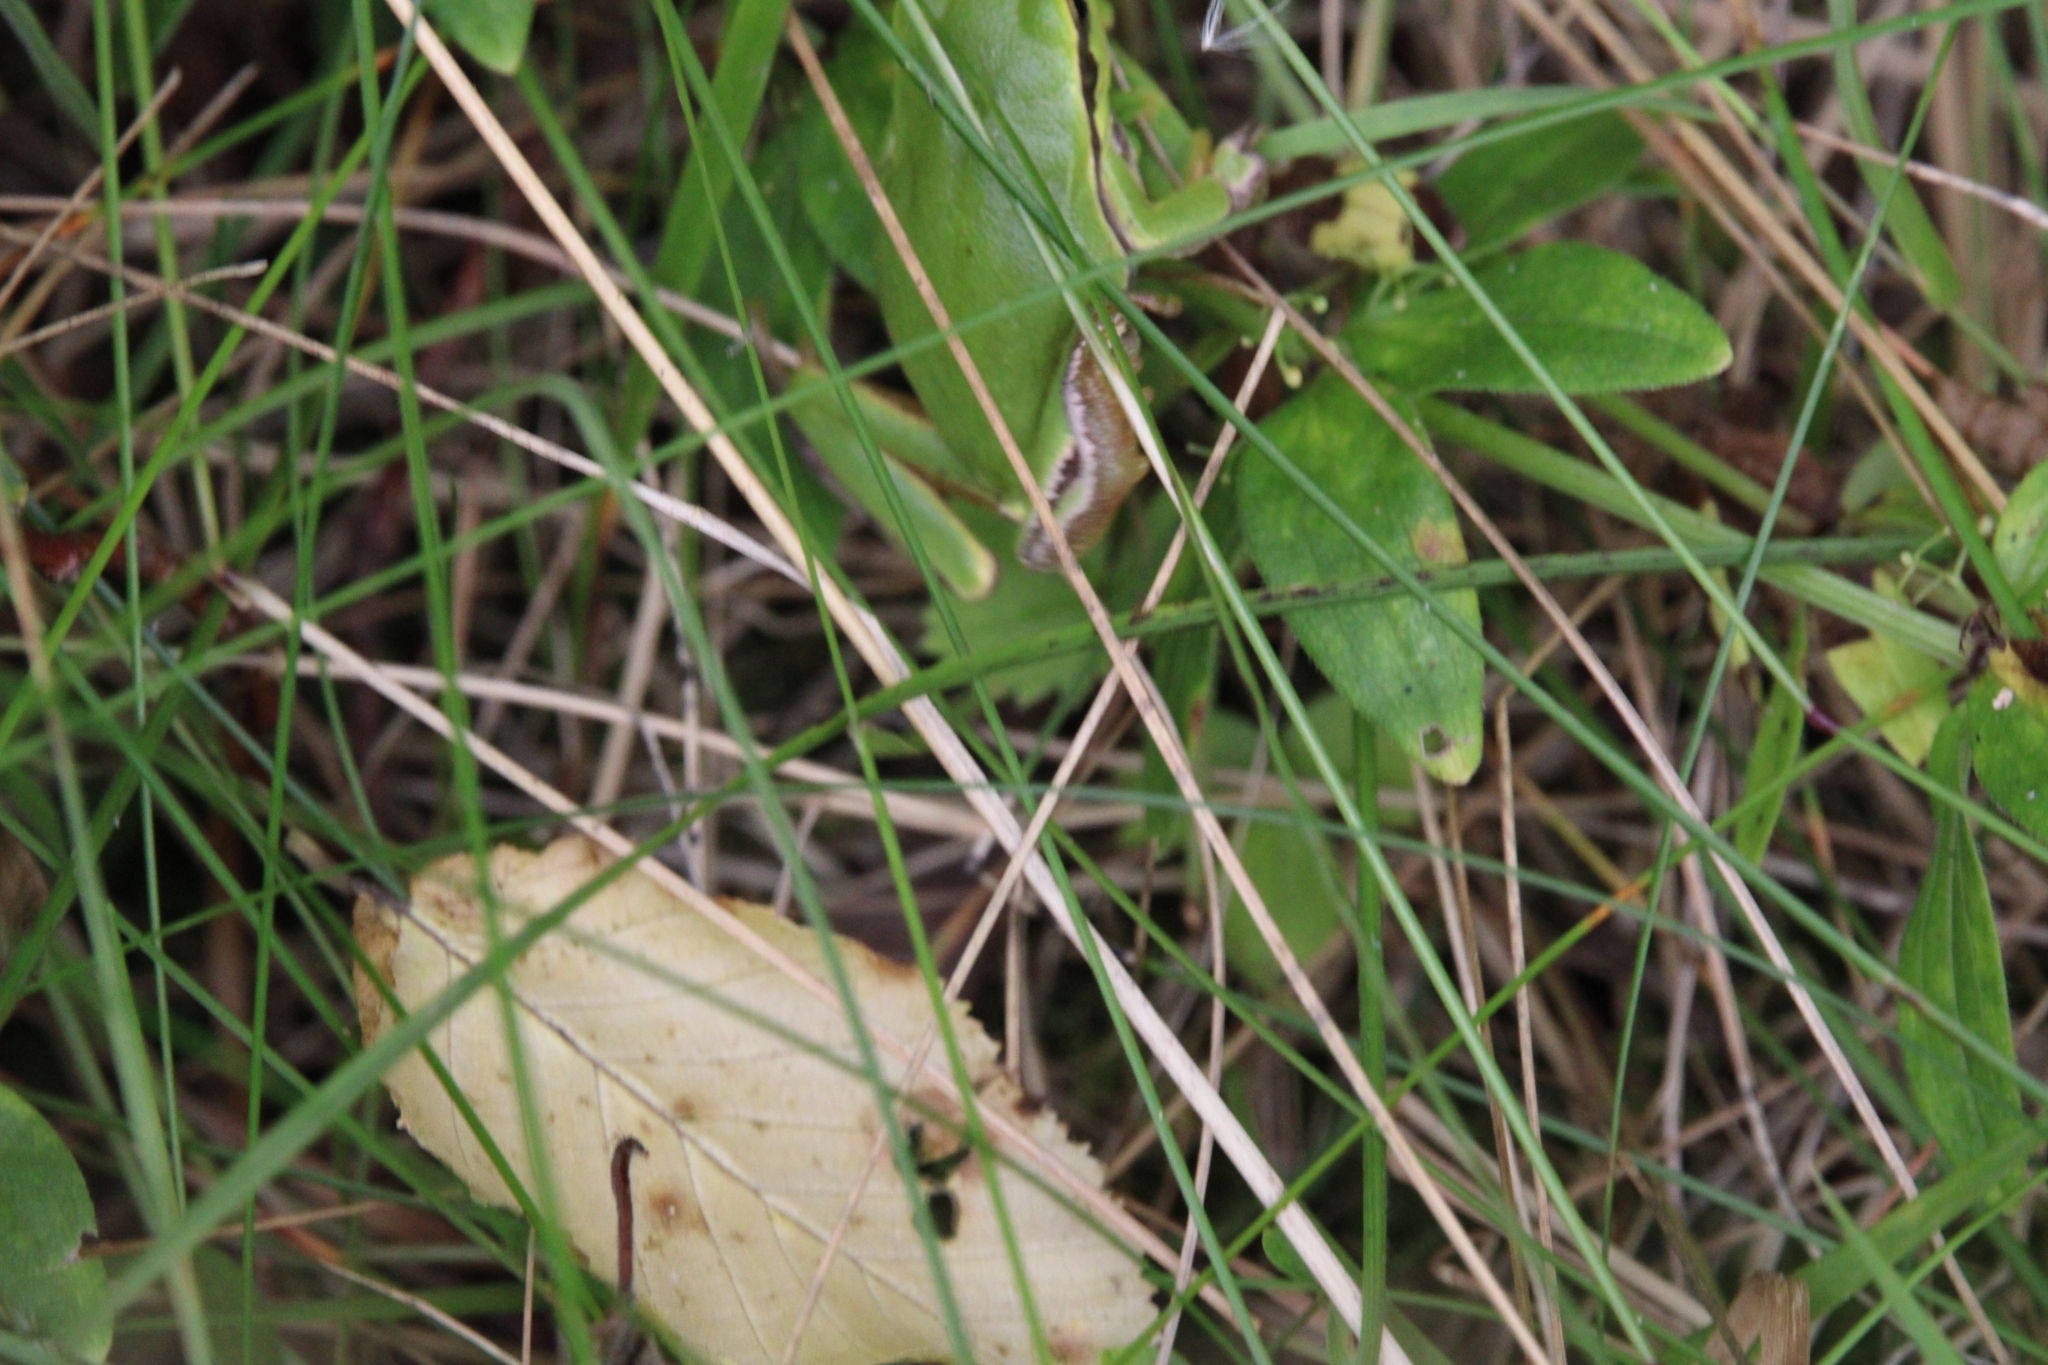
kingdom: Animalia
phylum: Chordata
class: Amphibia
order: Anura
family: Hylidae
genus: Hyla
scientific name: Hyla orientalis
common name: Caucasian treefrog
